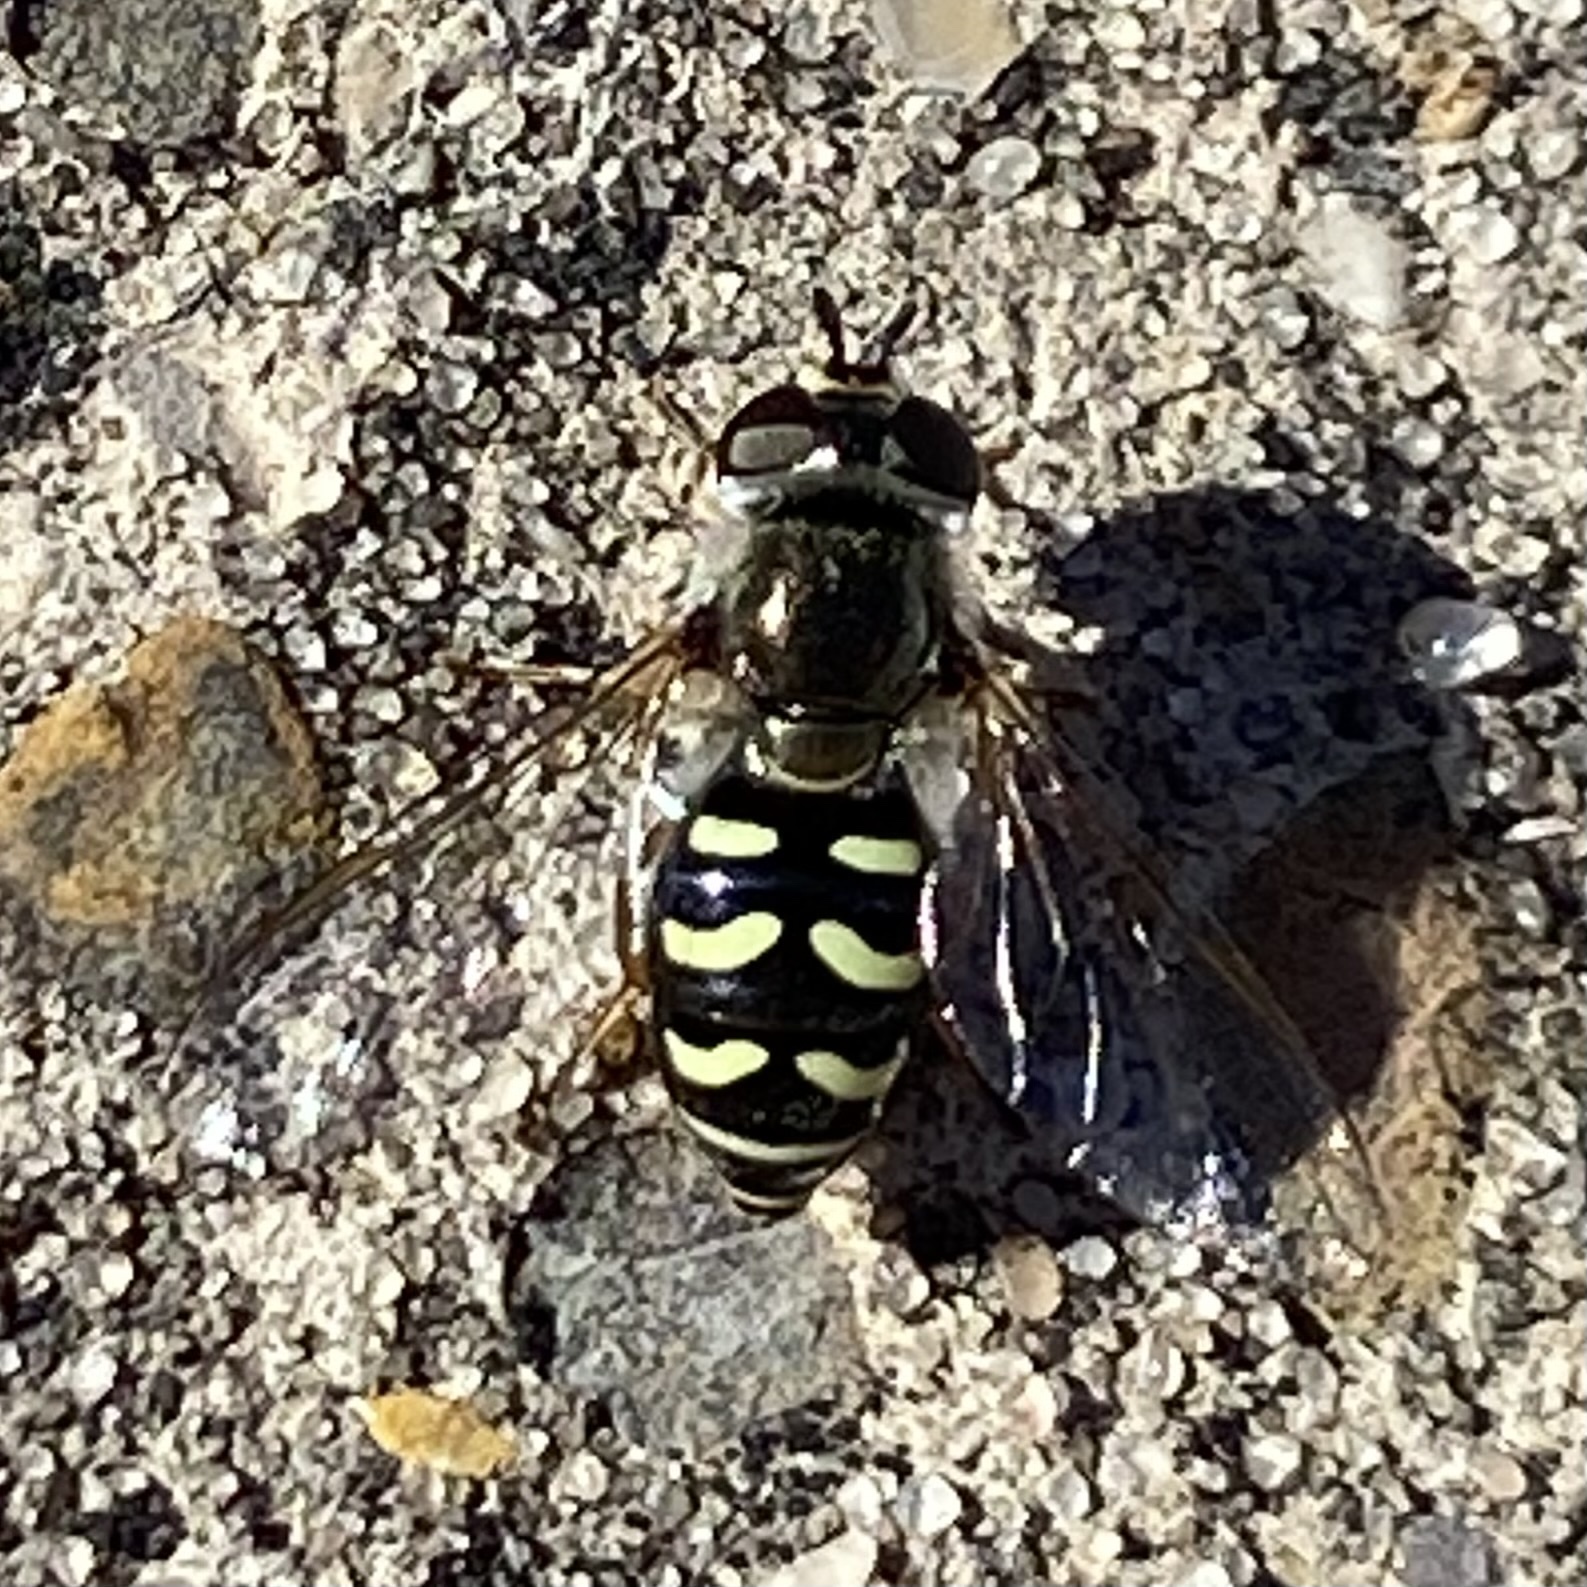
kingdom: Animalia
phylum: Arthropoda
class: Insecta
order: Diptera
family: Syrphidae
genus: Eupeodes
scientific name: Eupeodes volucris
